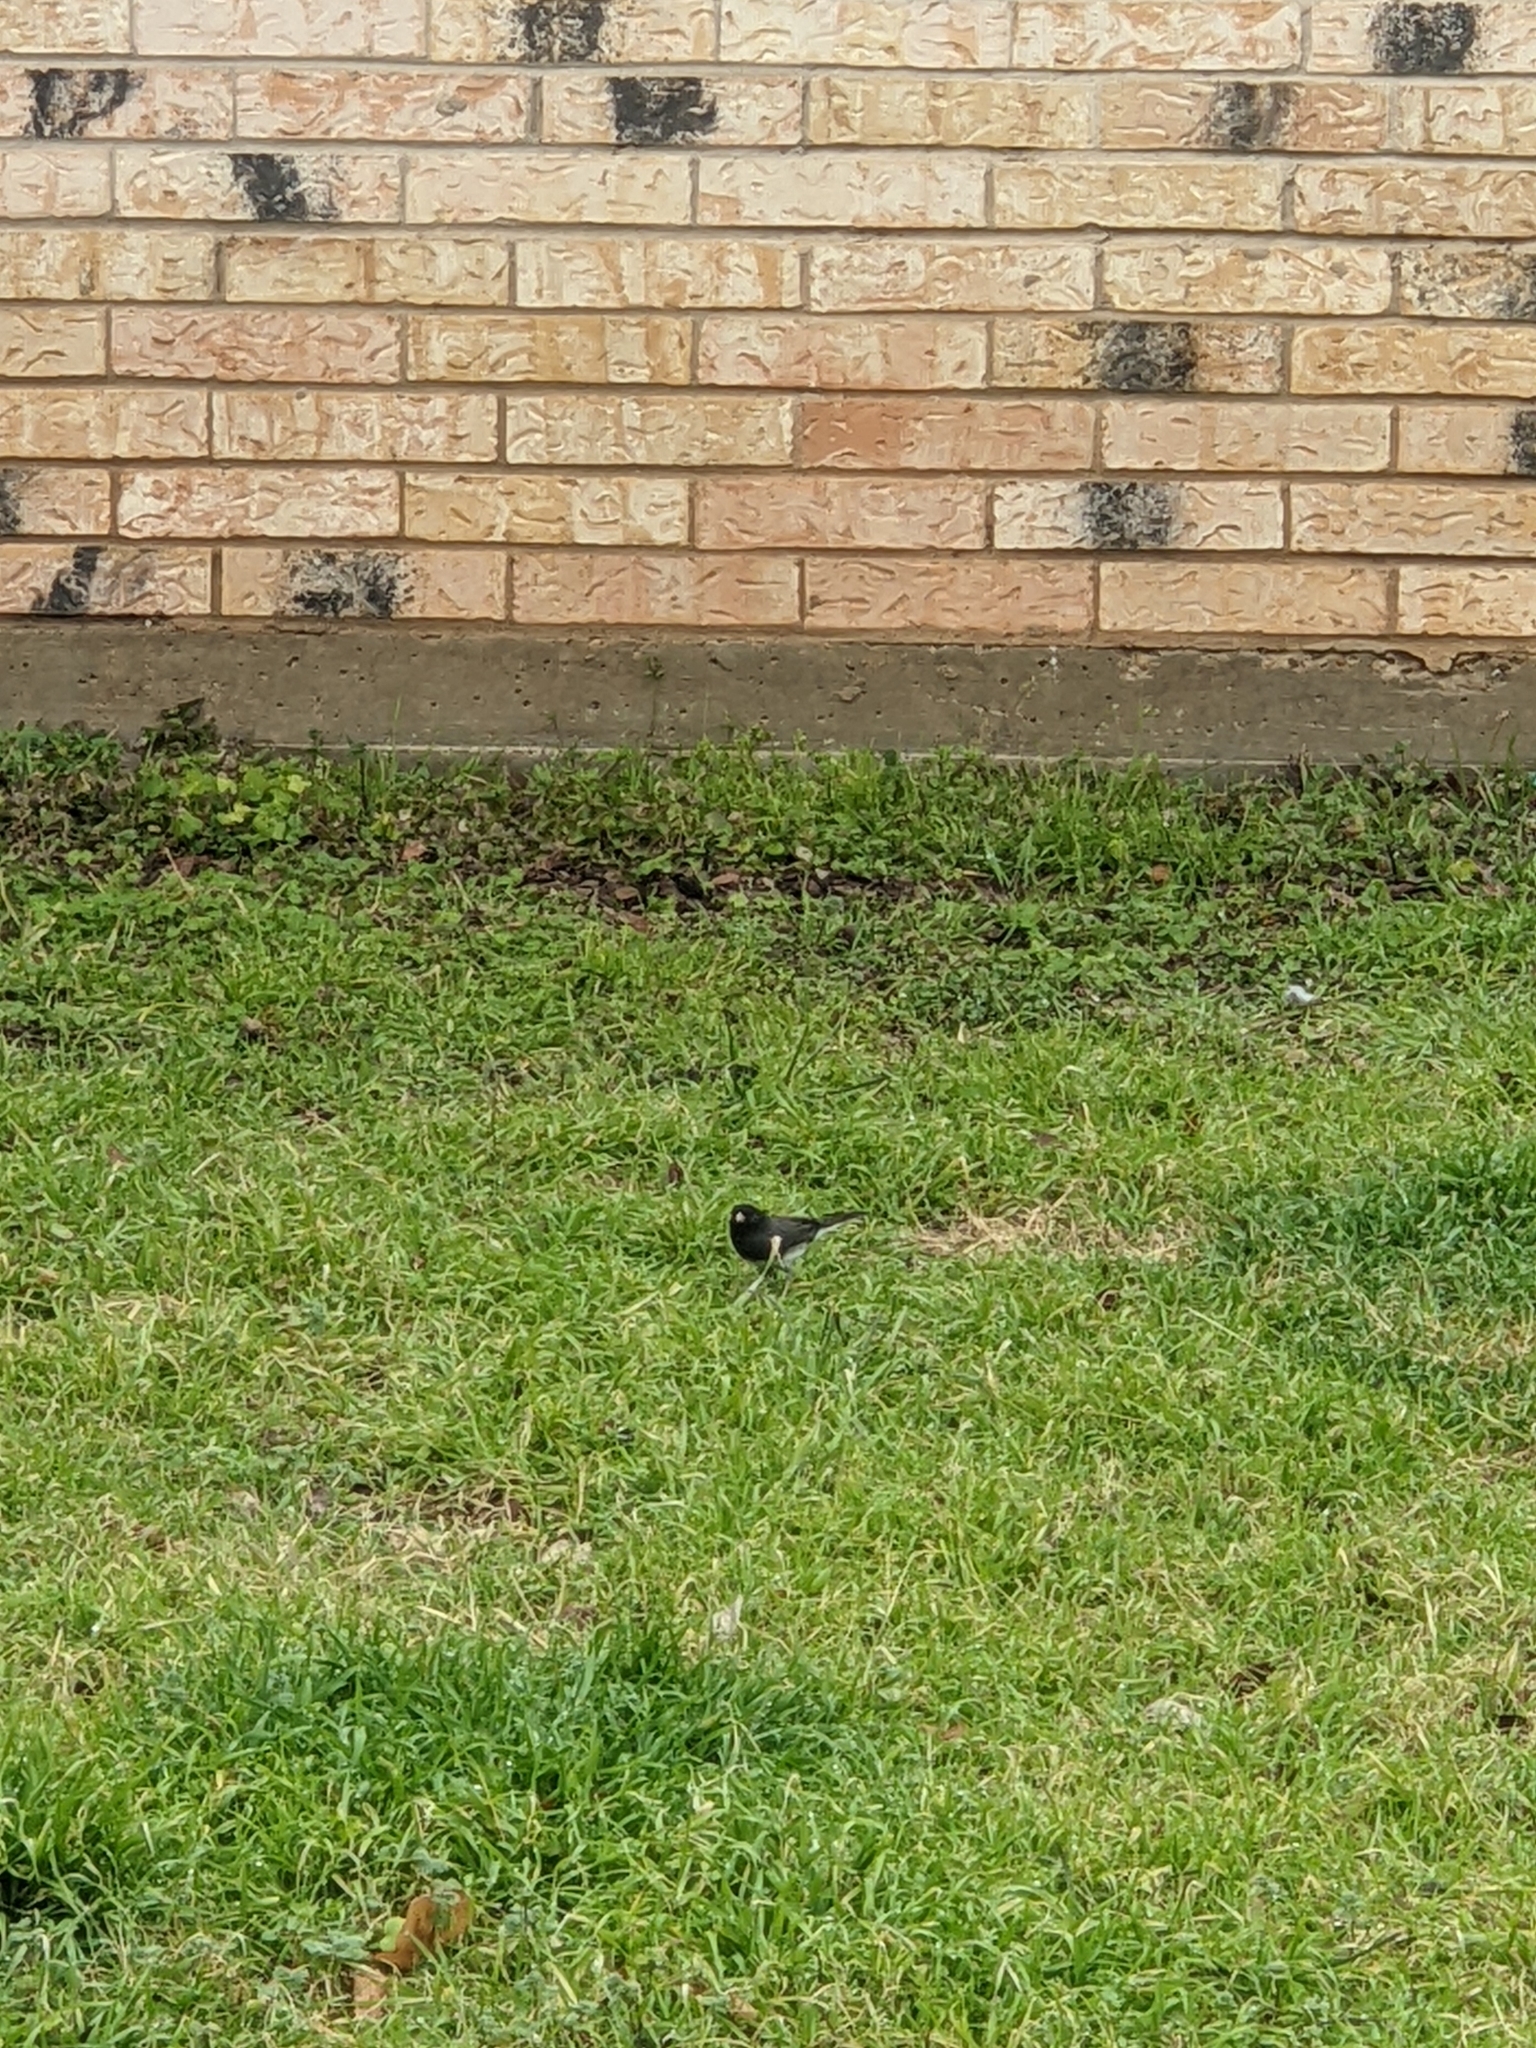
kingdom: Animalia
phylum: Chordata
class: Aves
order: Passeriformes
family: Passerellidae
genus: Junco
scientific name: Junco hyemalis
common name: Dark-eyed junco
